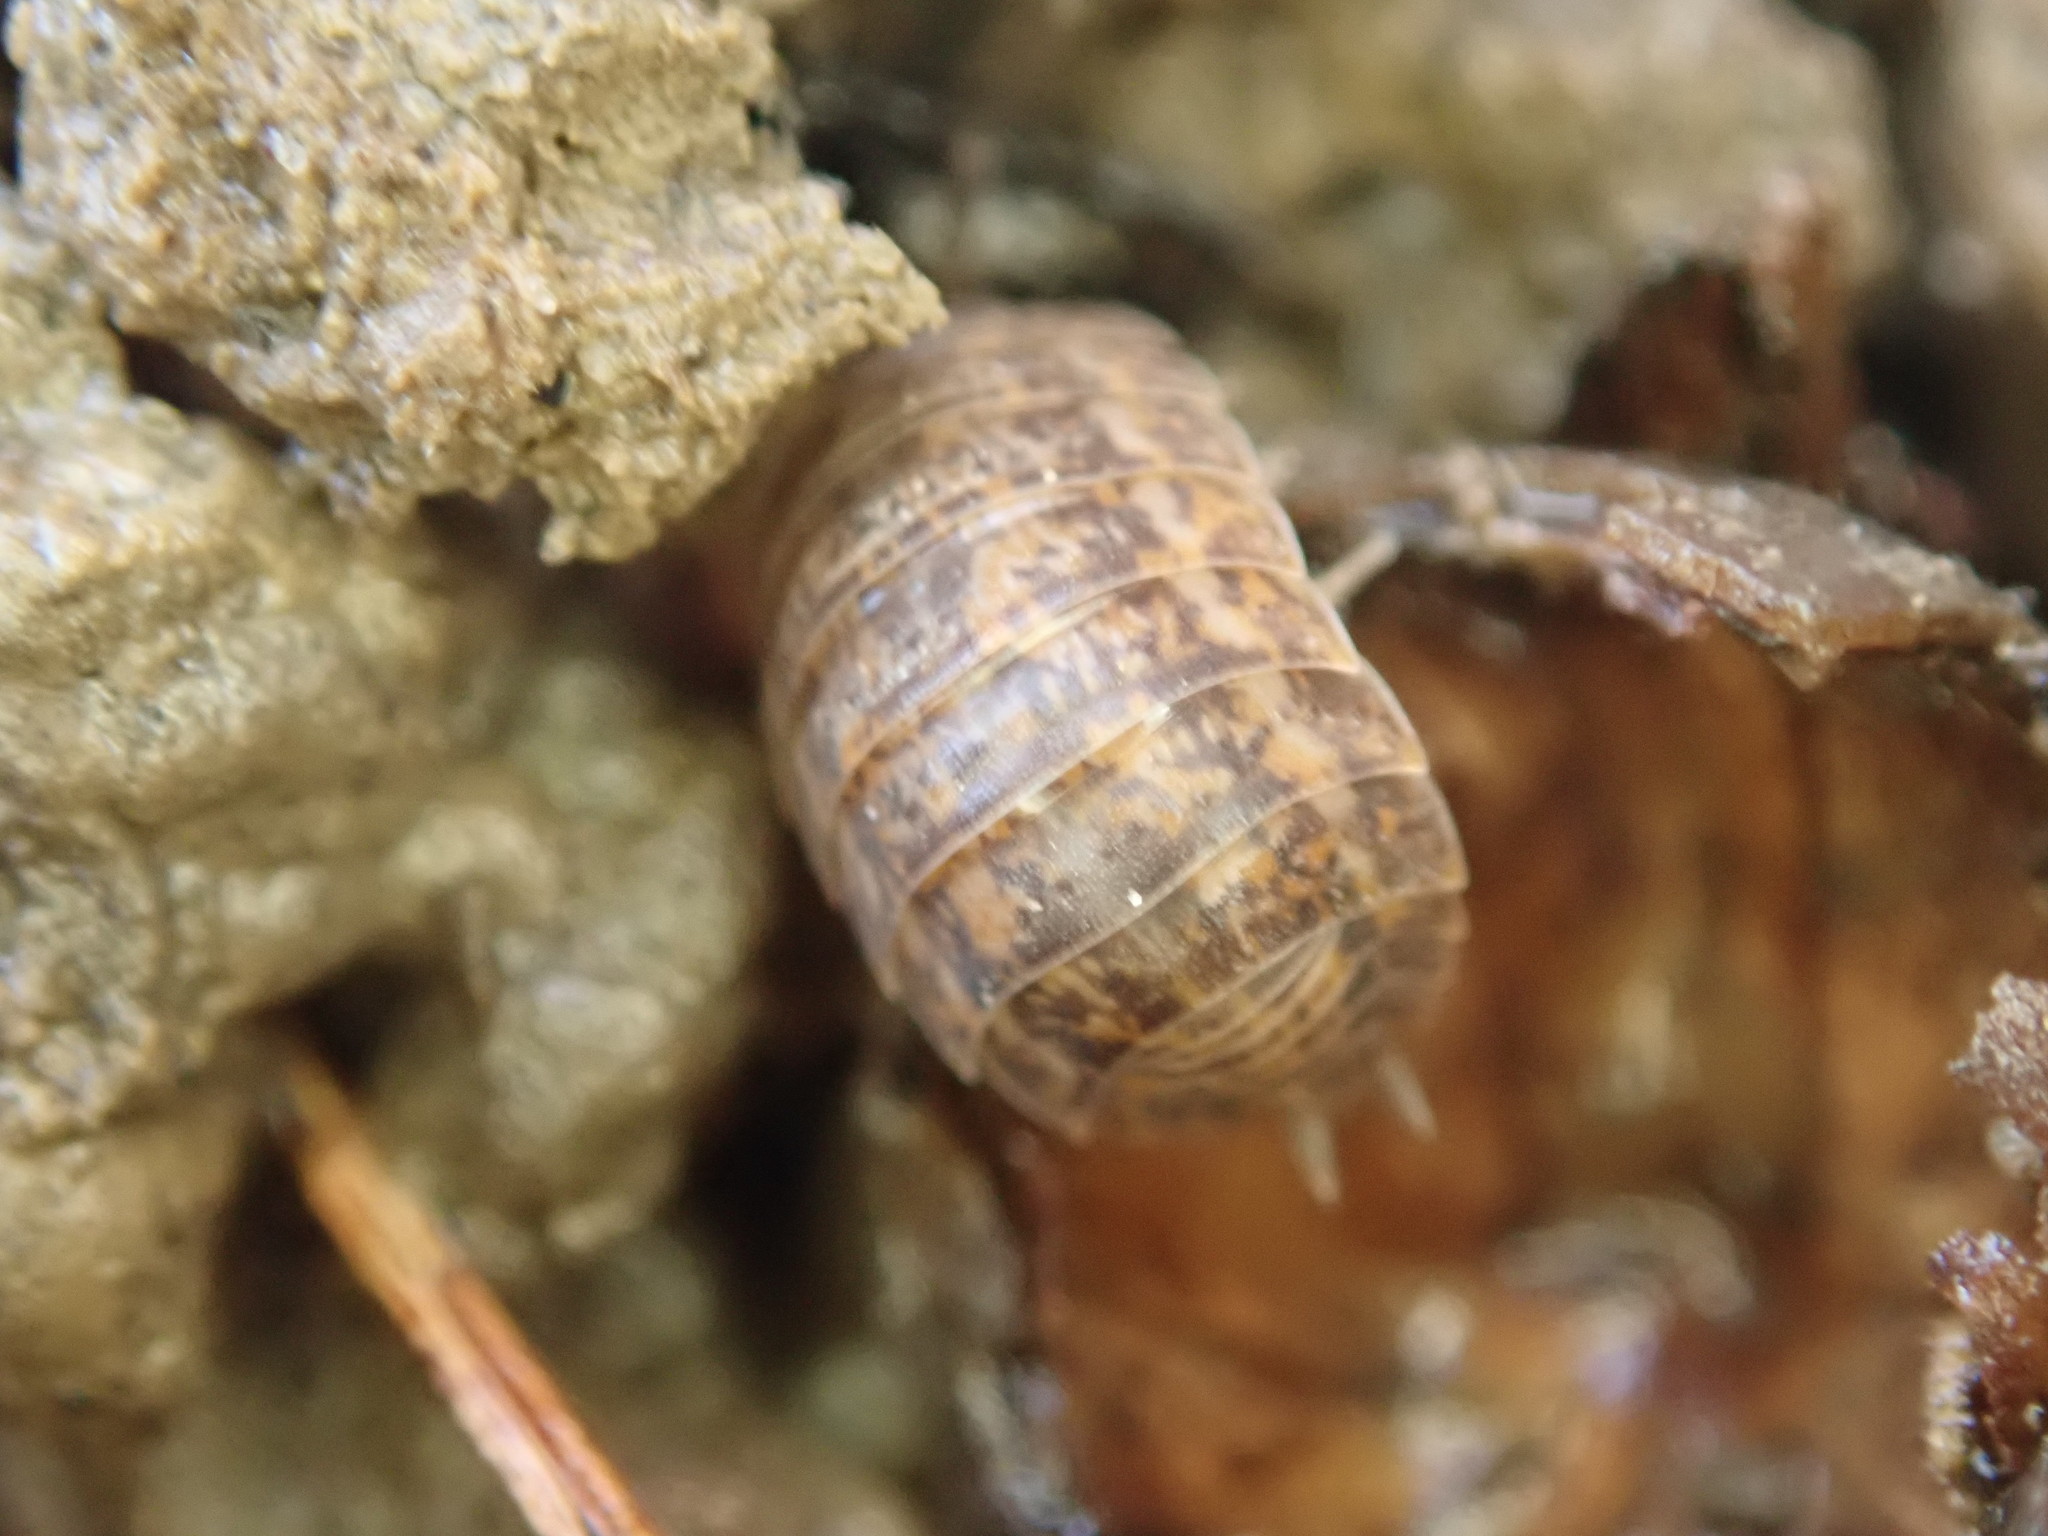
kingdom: Animalia
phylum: Arthropoda
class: Malacostraca
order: Isopoda
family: Trachelipodidae
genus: Trachelipus
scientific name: Trachelipus rathkii
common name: Isopod
